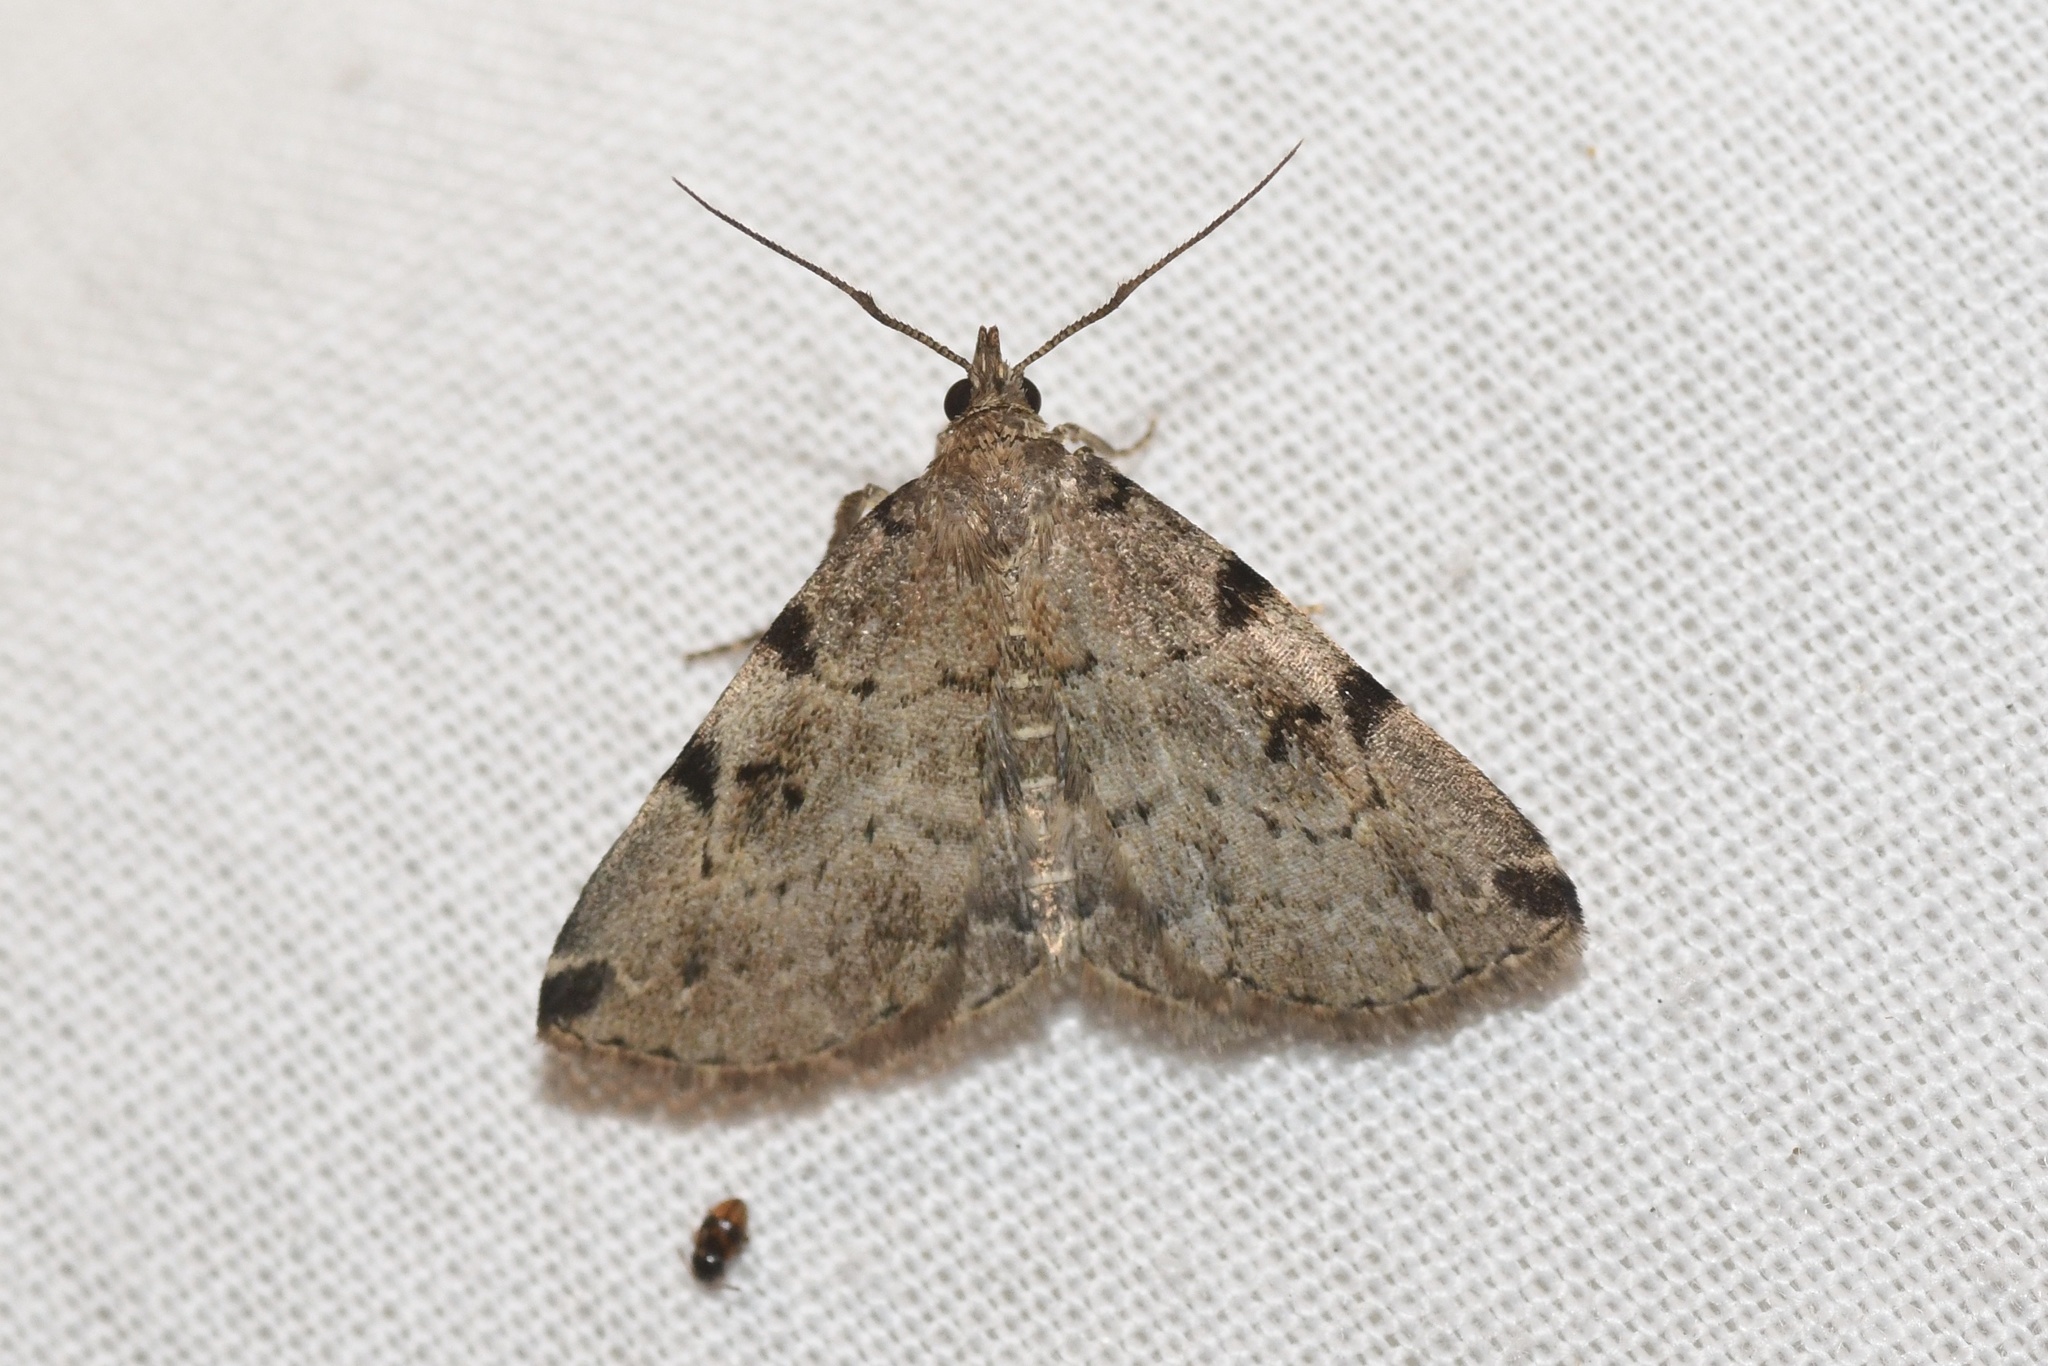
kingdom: Animalia
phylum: Arthropoda
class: Insecta
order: Lepidoptera
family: Erebidae
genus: Zanclognatha
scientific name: Zanclognatha lituralis
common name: Lettered fan-foot
